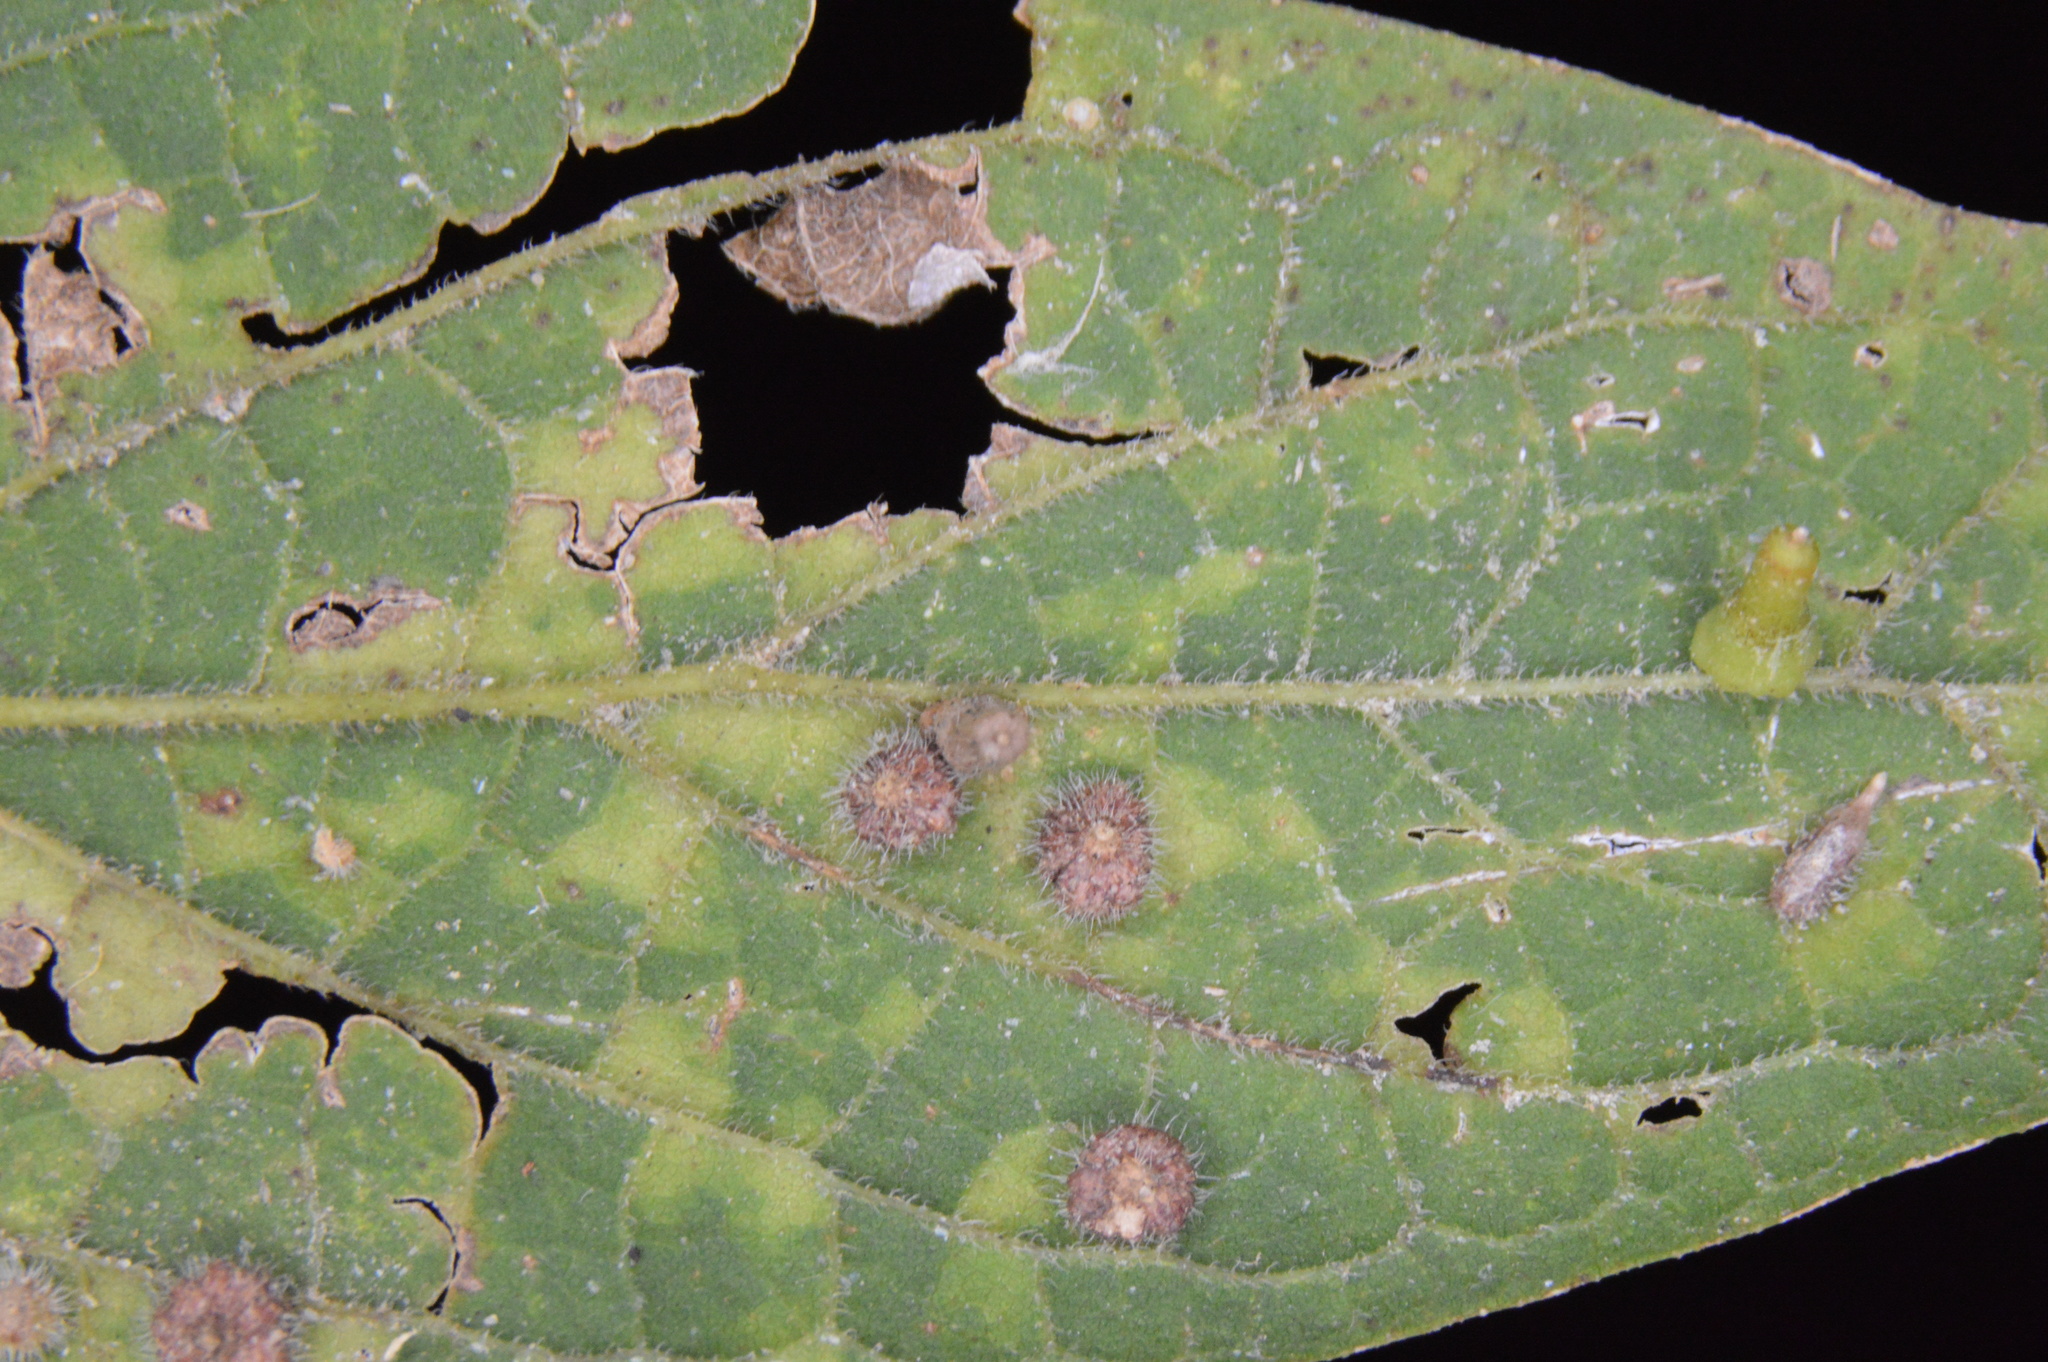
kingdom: Animalia
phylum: Arthropoda
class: Insecta
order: Diptera
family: Cecidomyiidae
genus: Celticecis
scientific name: Celticecis capsularis
